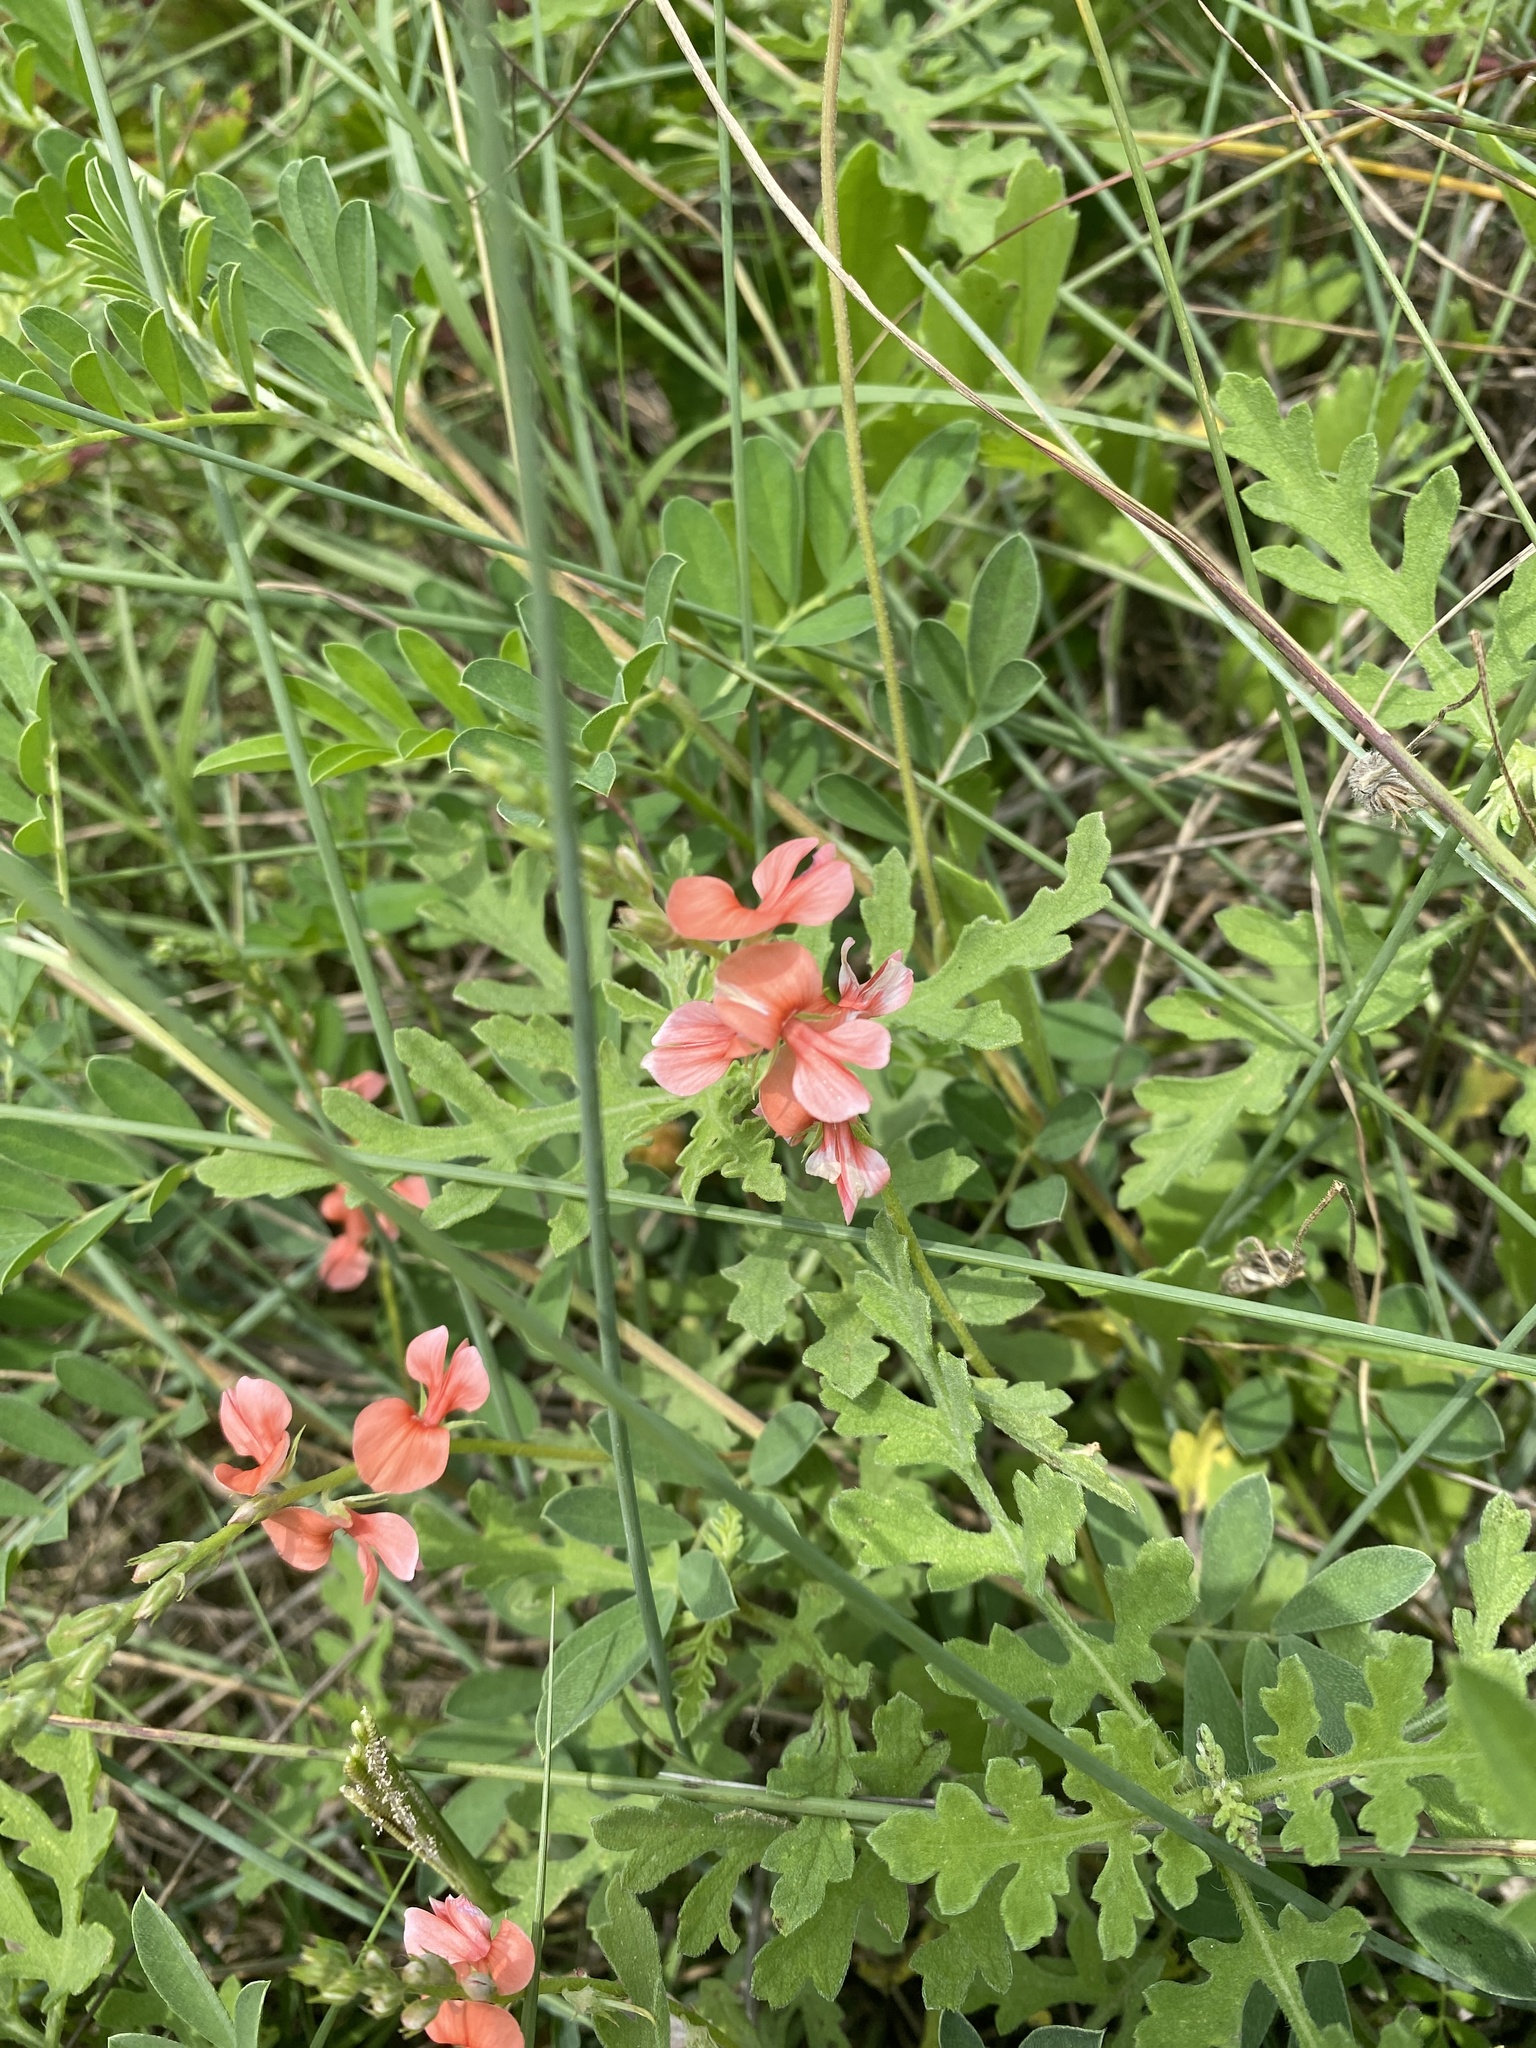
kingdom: Plantae
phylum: Tracheophyta
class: Magnoliopsida
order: Fabales
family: Fabaceae
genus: Indigofera
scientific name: Indigofera miniata
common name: Coast indigo
